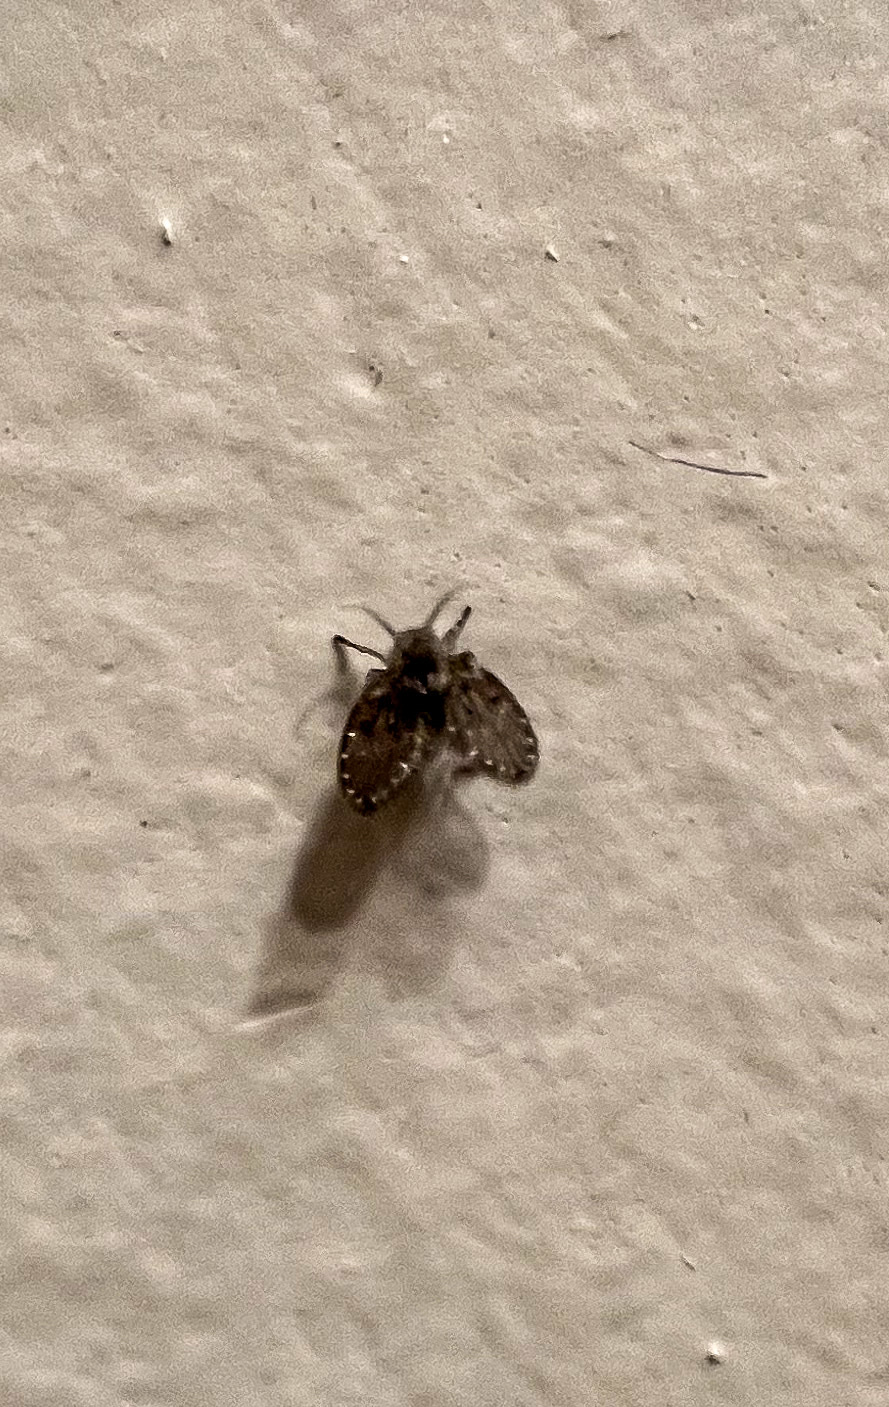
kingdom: Animalia
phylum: Arthropoda
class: Insecta
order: Diptera
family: Psychodidae
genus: Clogmia
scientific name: Clogmia albipunctatus
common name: White-spotted moth fly
